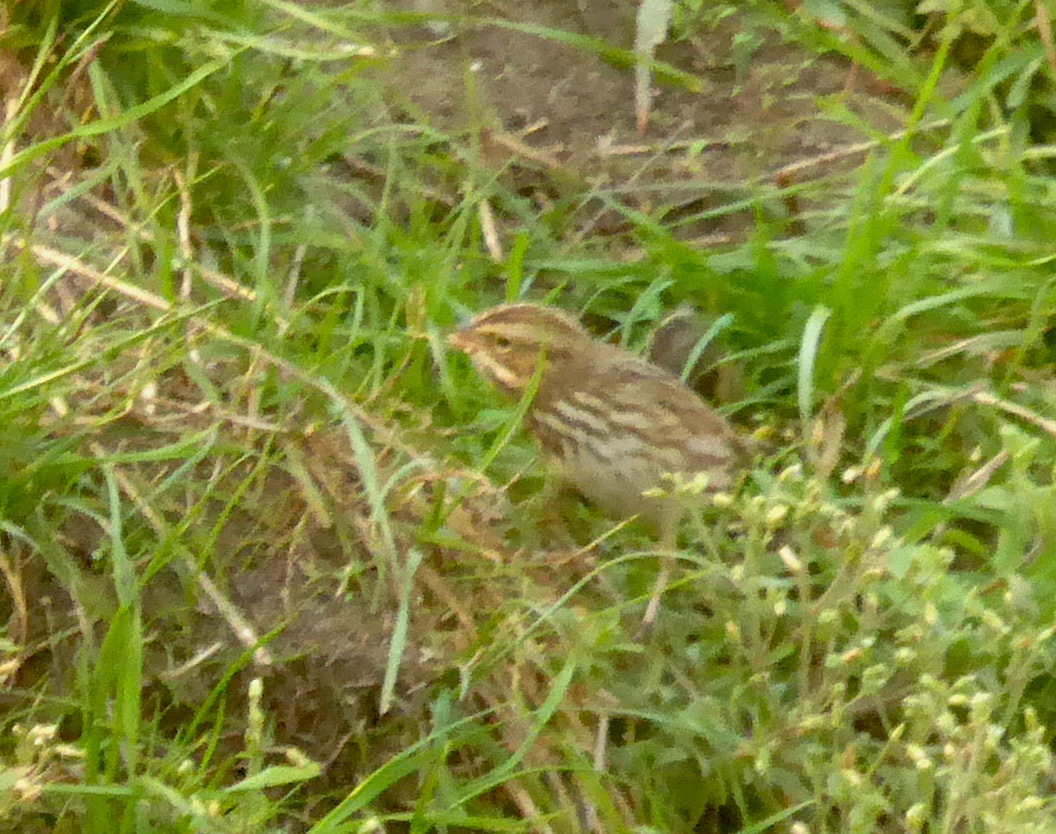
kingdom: Animalia
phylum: Chordata
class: Aves
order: Passeriformes
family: Passerellidae
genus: Passerculus
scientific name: Passerculus sandwichensis
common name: Savannah sparrow
